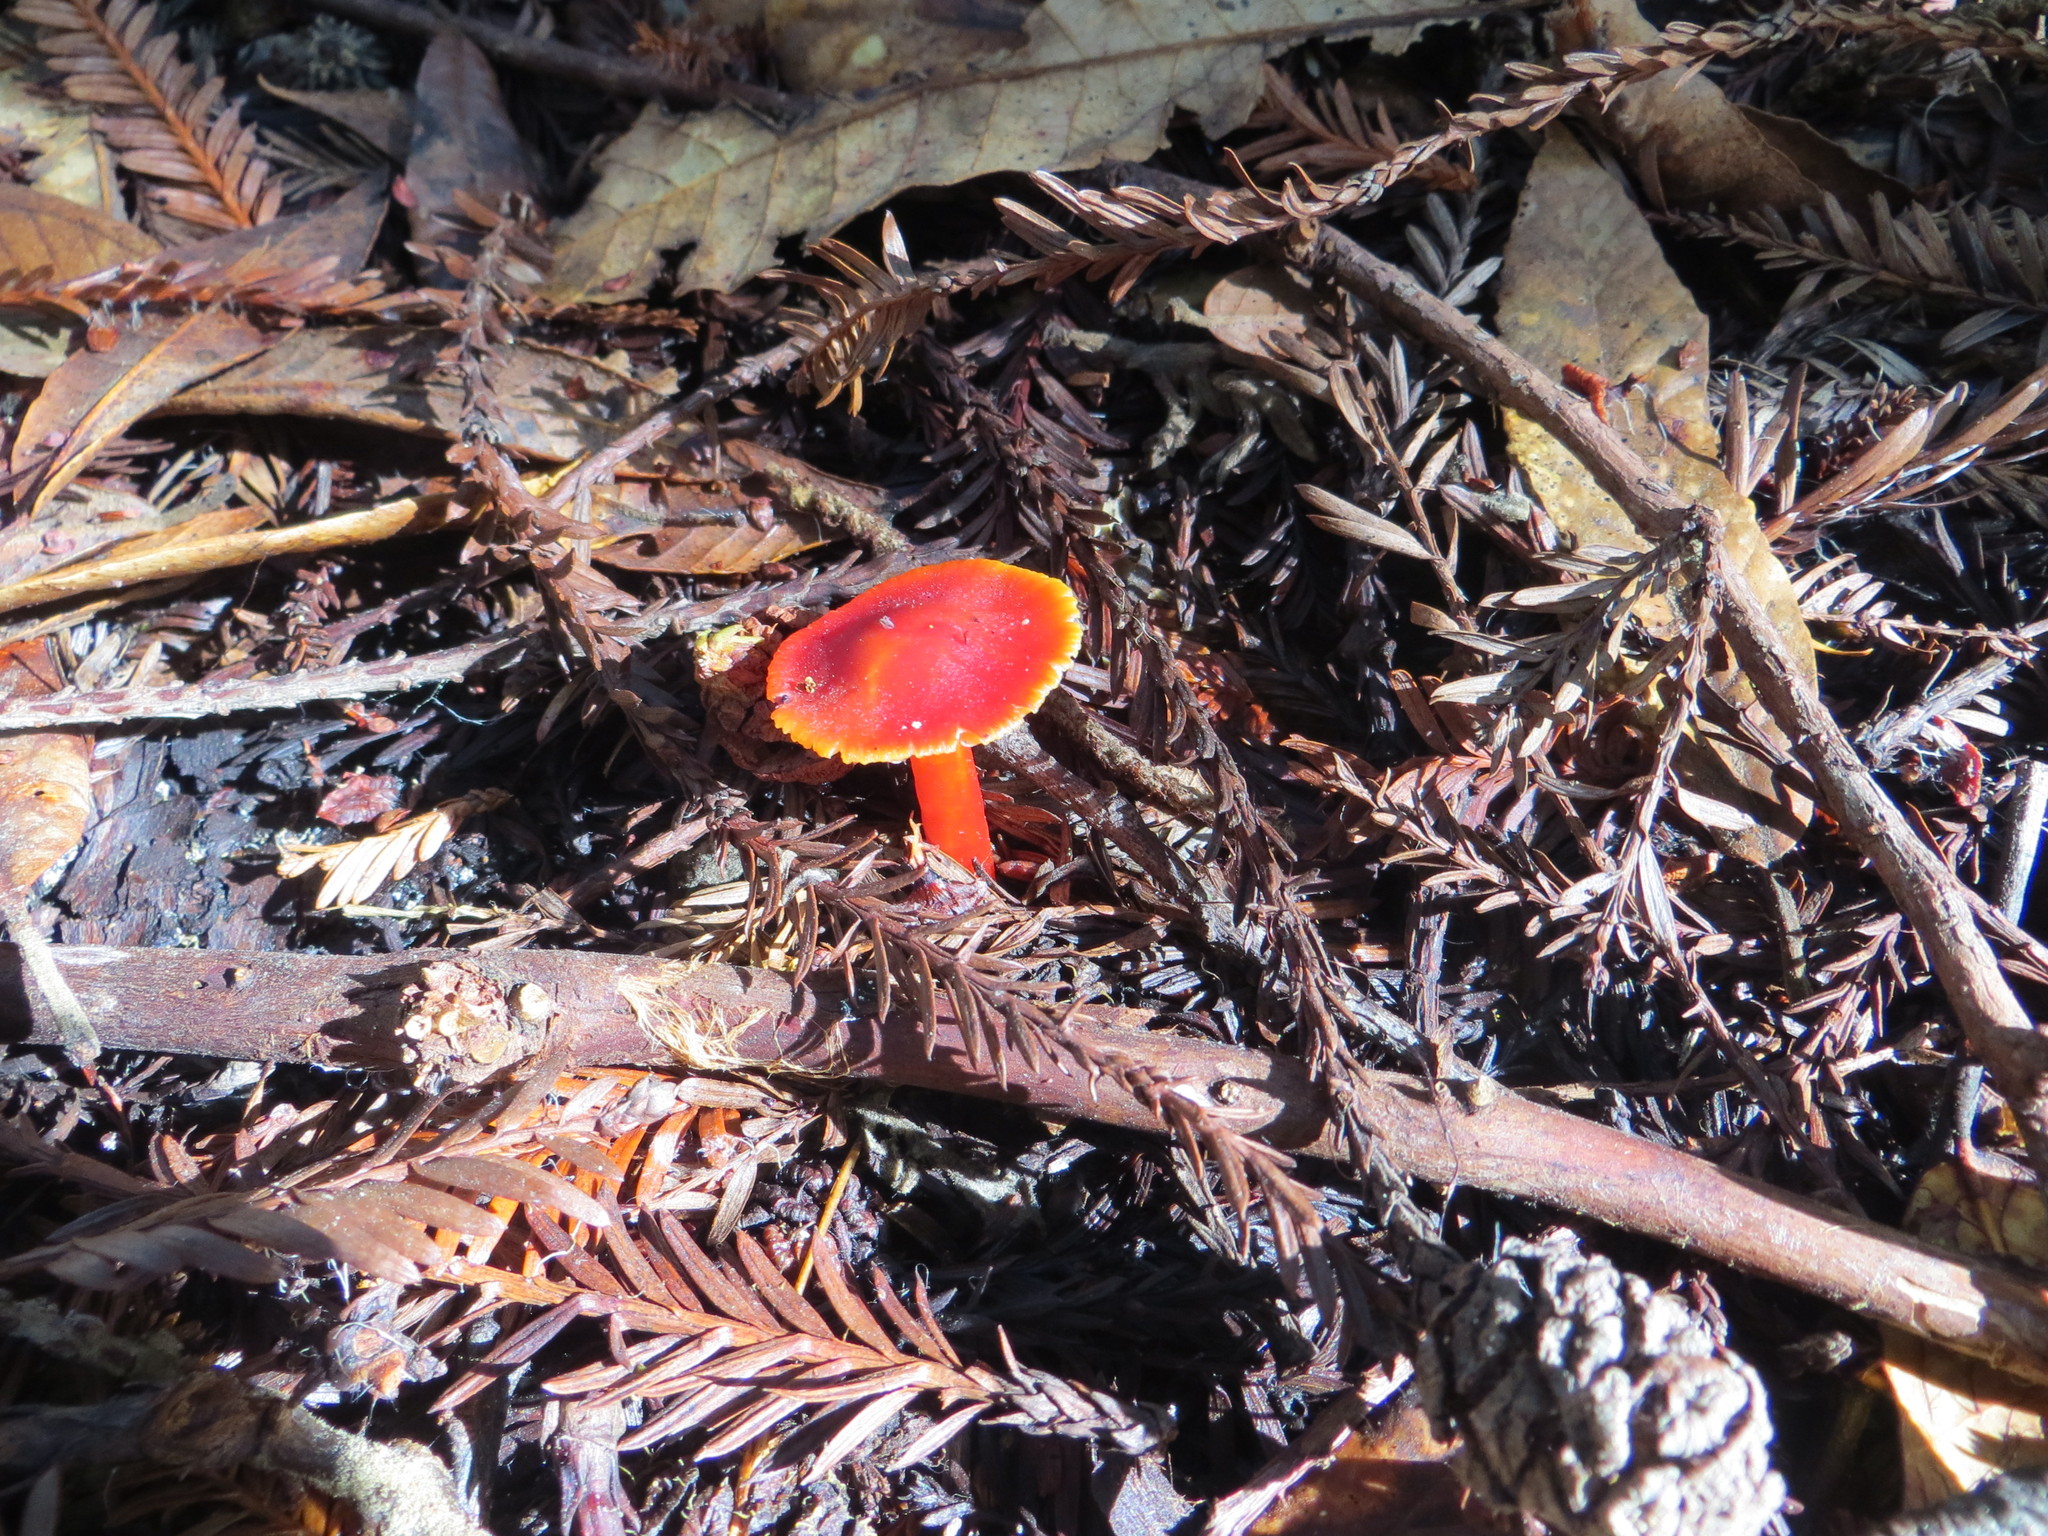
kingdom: Fungi
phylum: Basidiomycota
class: Agaricomycetes
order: Agaricales
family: Hygrophoraceae
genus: Hygrocybe
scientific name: Hygrocybe coccinea
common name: Scarlet hood
